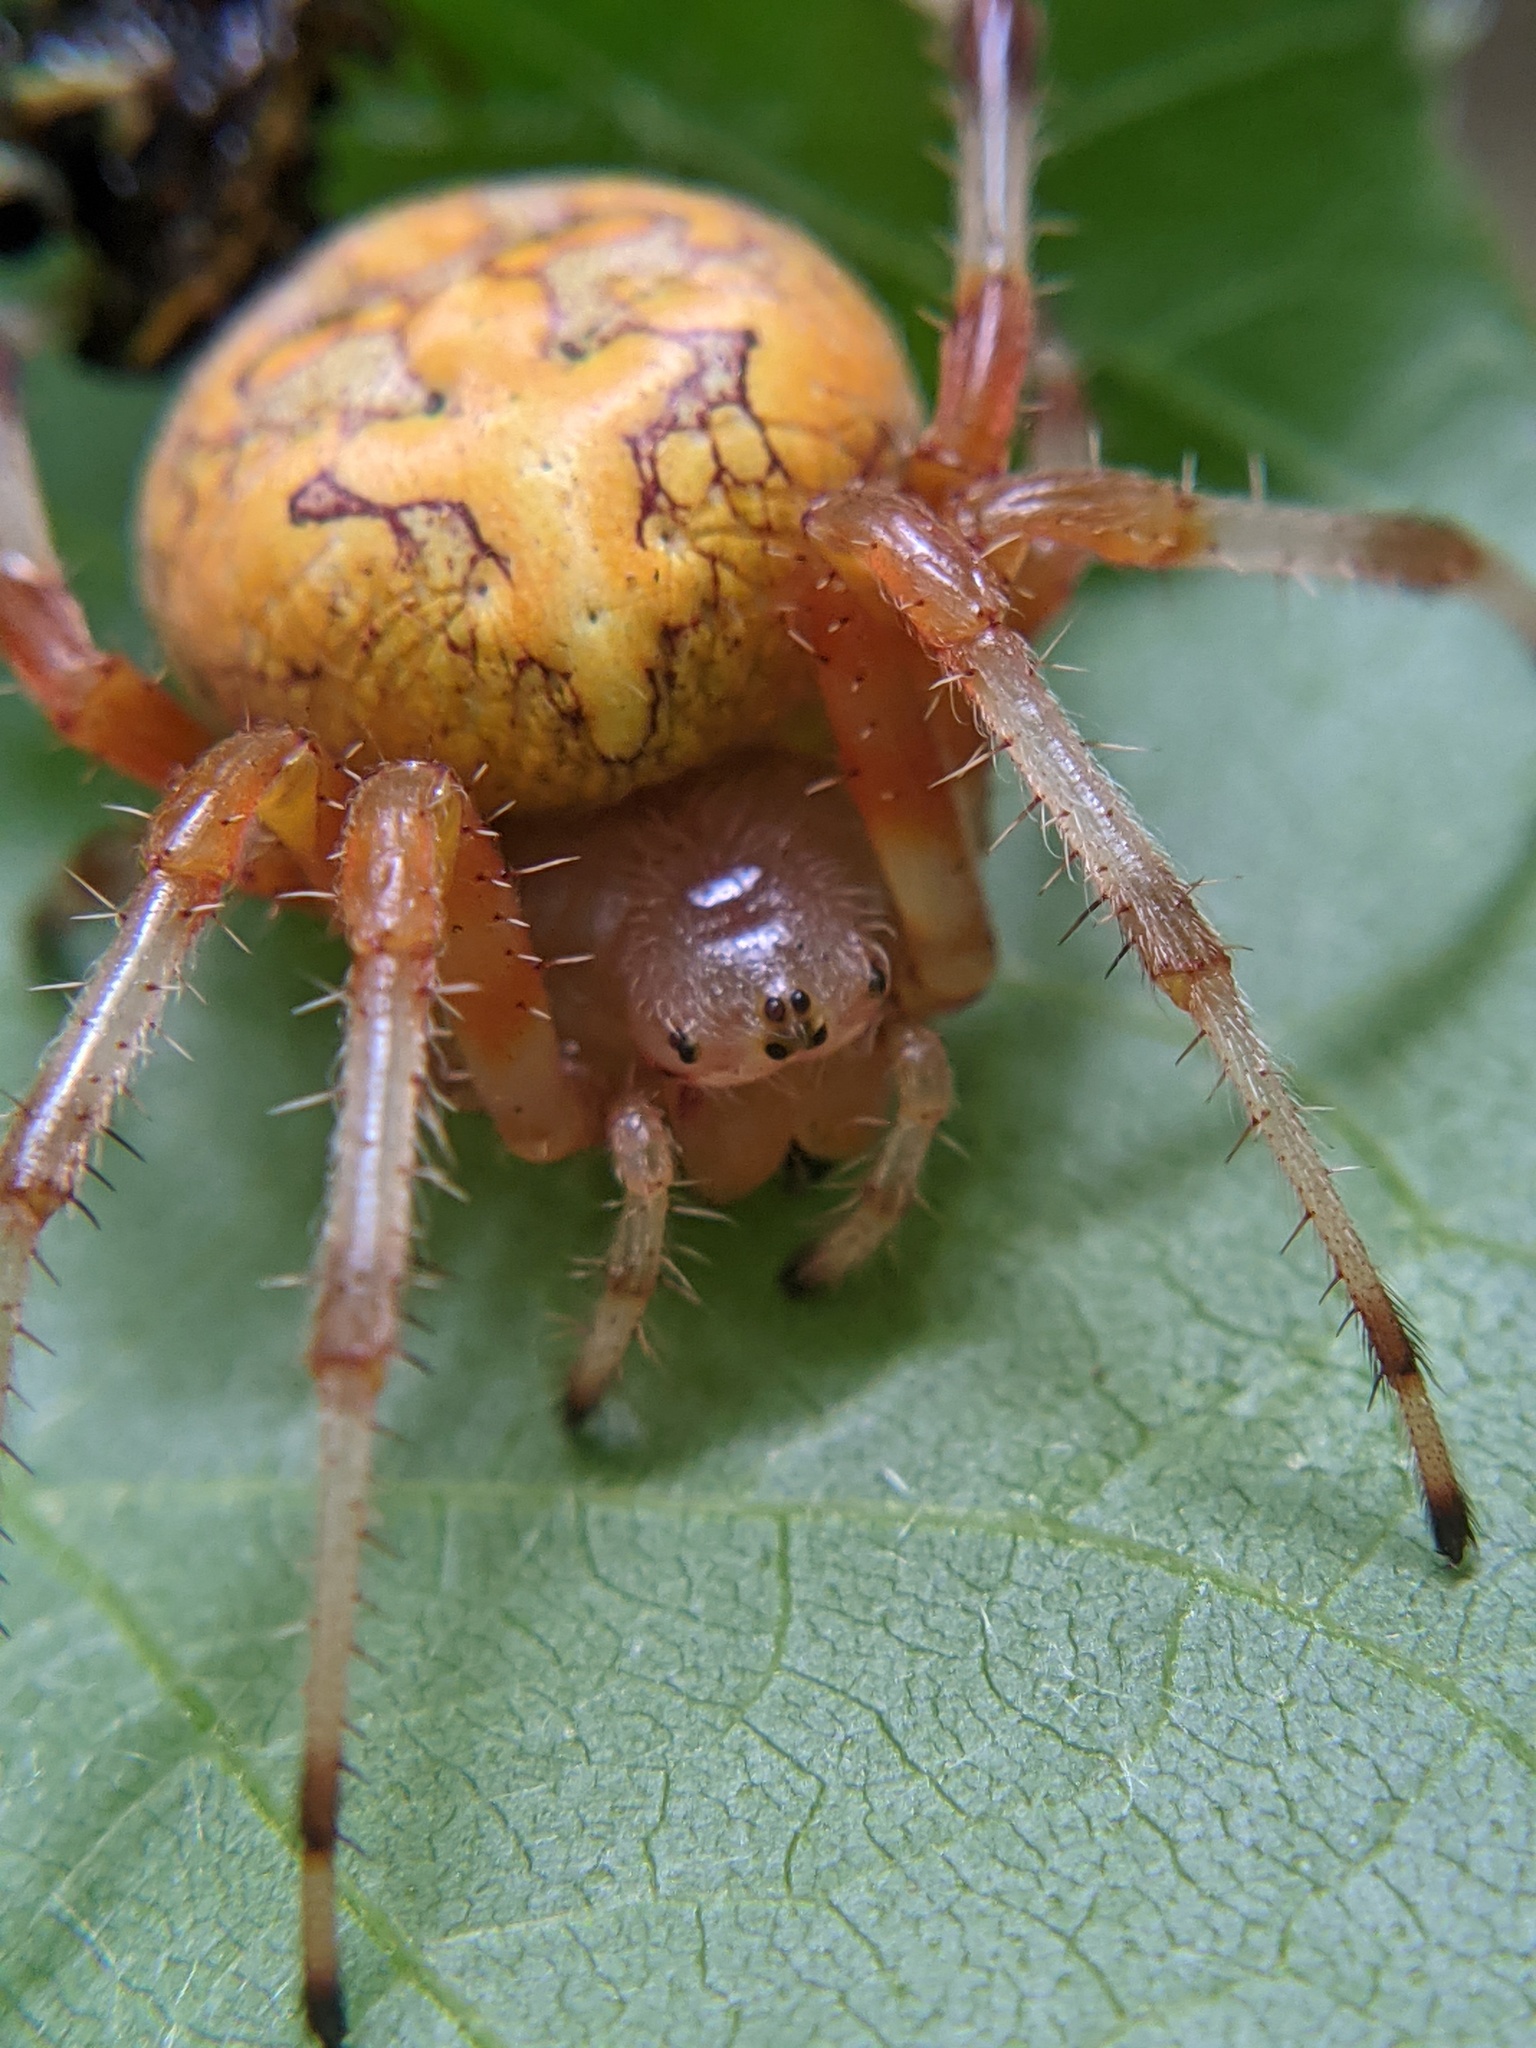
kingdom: Animalia
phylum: Arthropoda
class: Arachnida
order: Araneae
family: Araneidae
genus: Araneus
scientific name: Araneus marmoreus
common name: Marbled orbweaver
